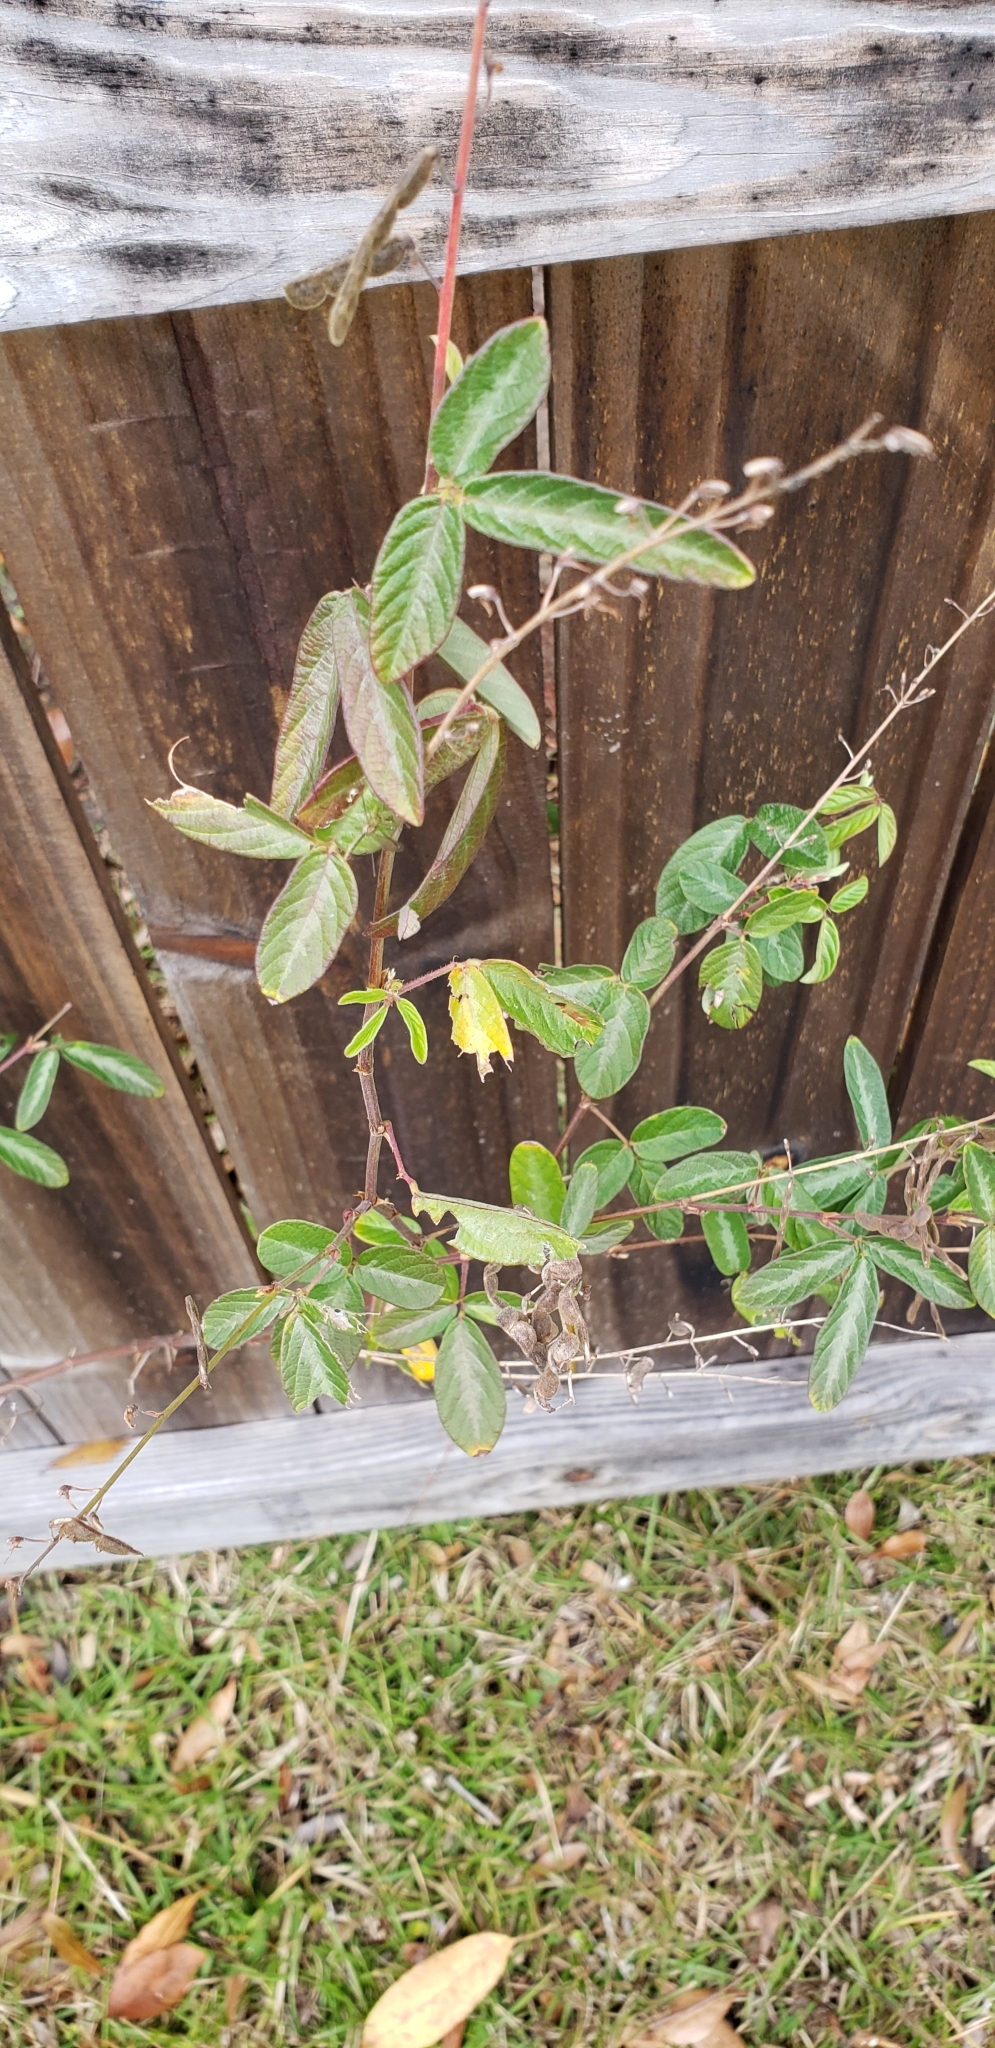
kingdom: Plantae
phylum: Tracheophyta
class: Magnoliopsida
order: Fabales
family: Fabaceae
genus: Desmodium
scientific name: Desmodium incanum
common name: Tickclover
